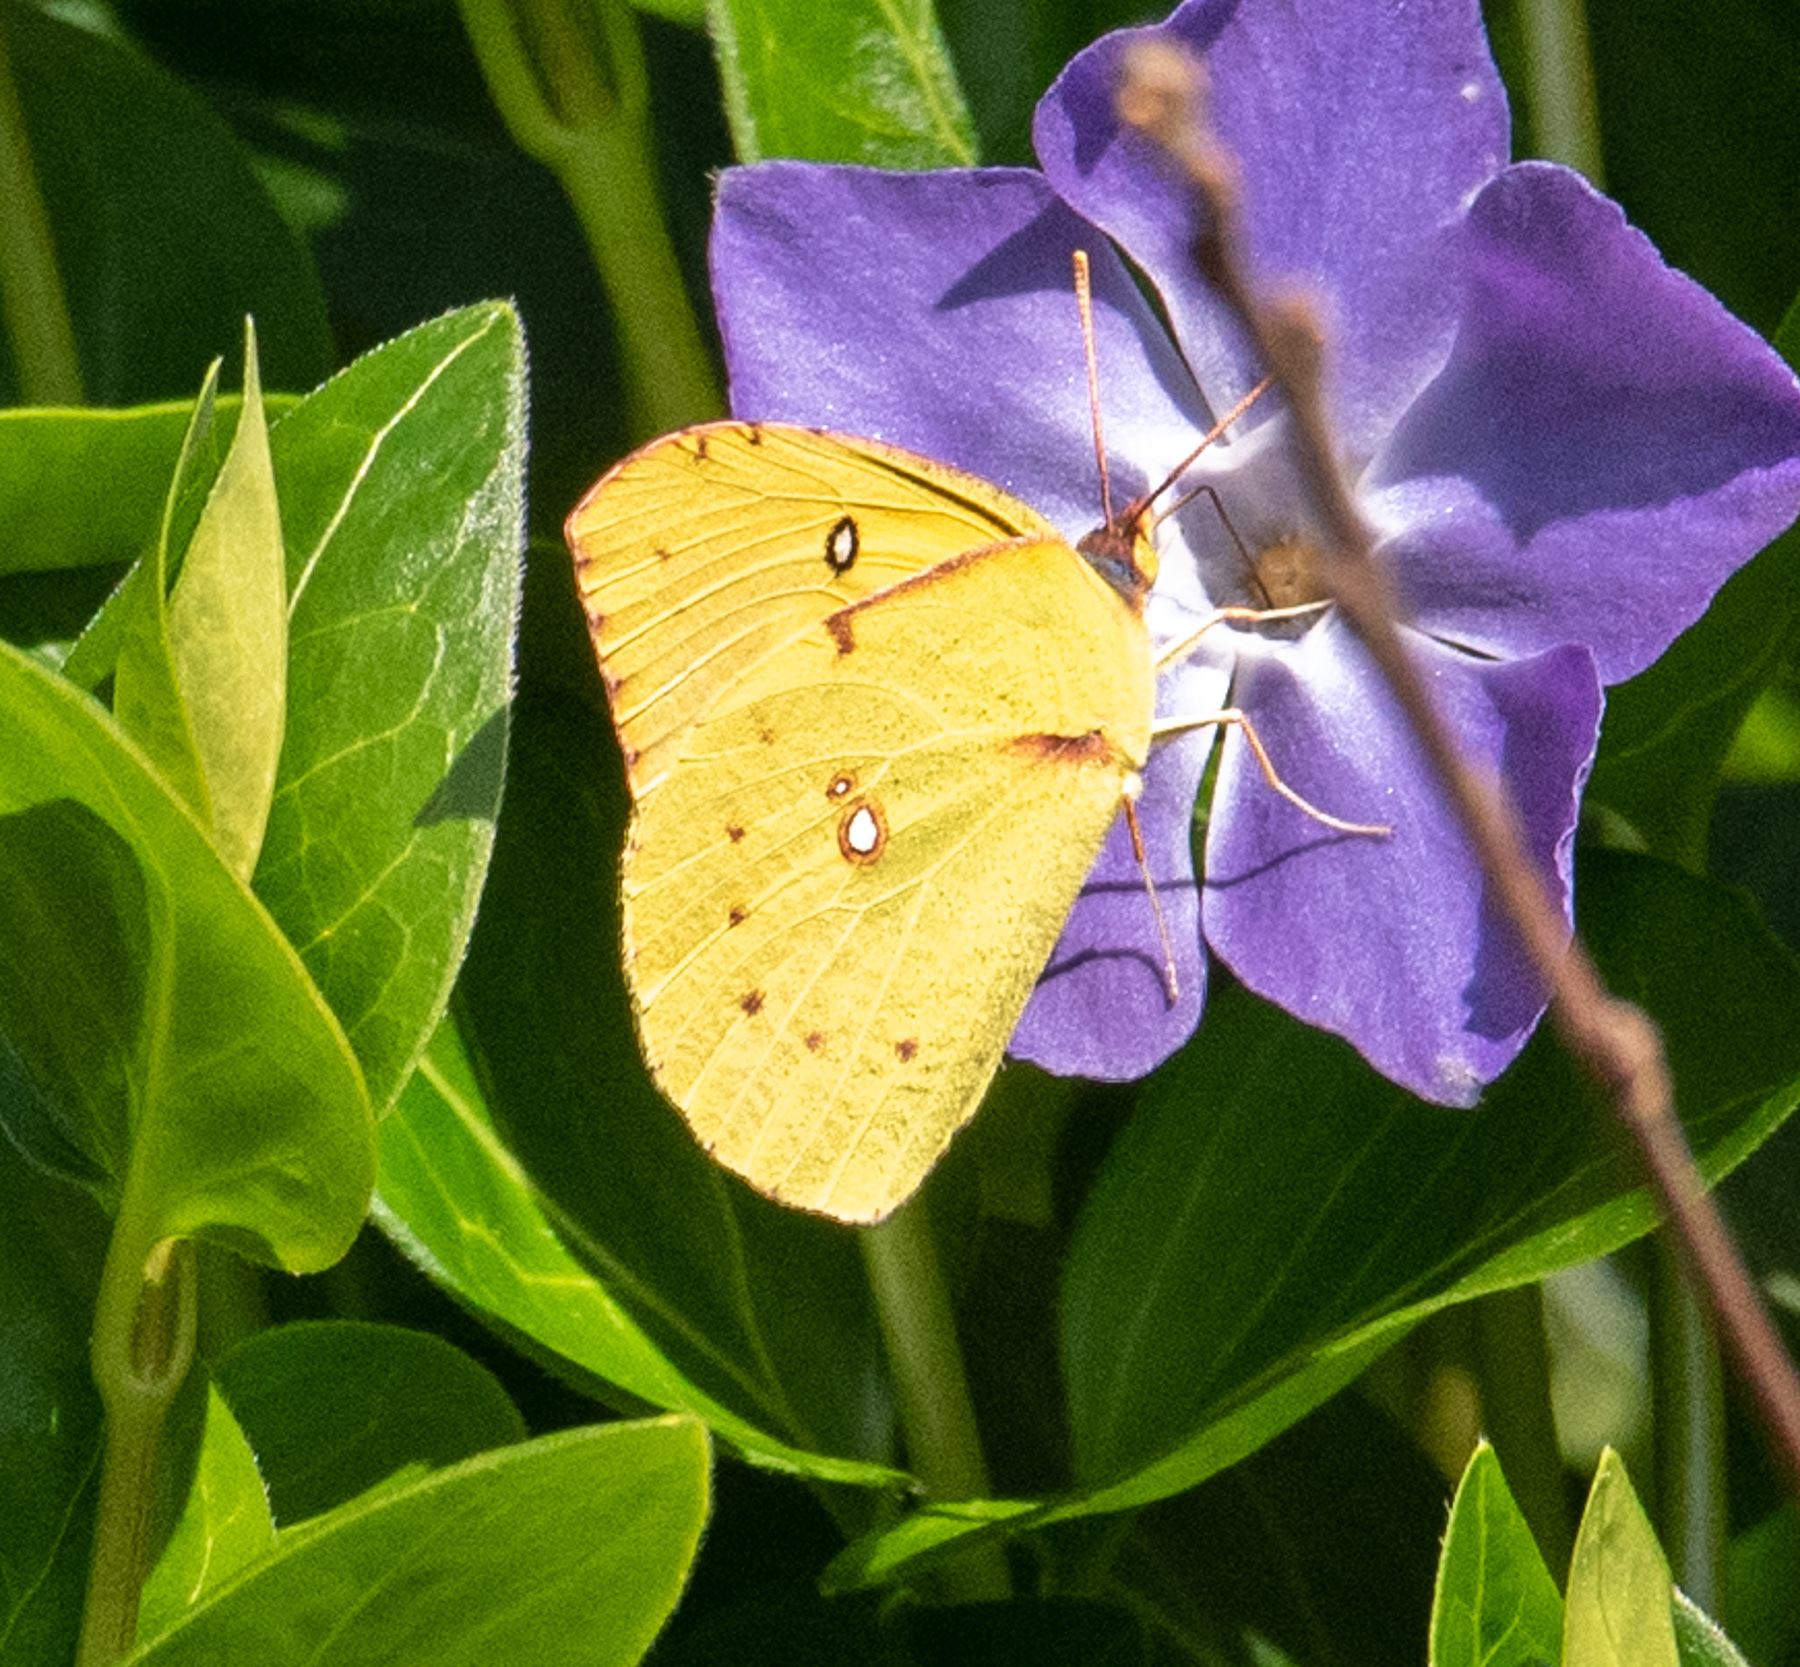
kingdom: Animalia
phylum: Arthropoda
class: Insecta
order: Lepidoptera
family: Pieridae
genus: Zerene
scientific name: Zerene eurydice
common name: California dogface
